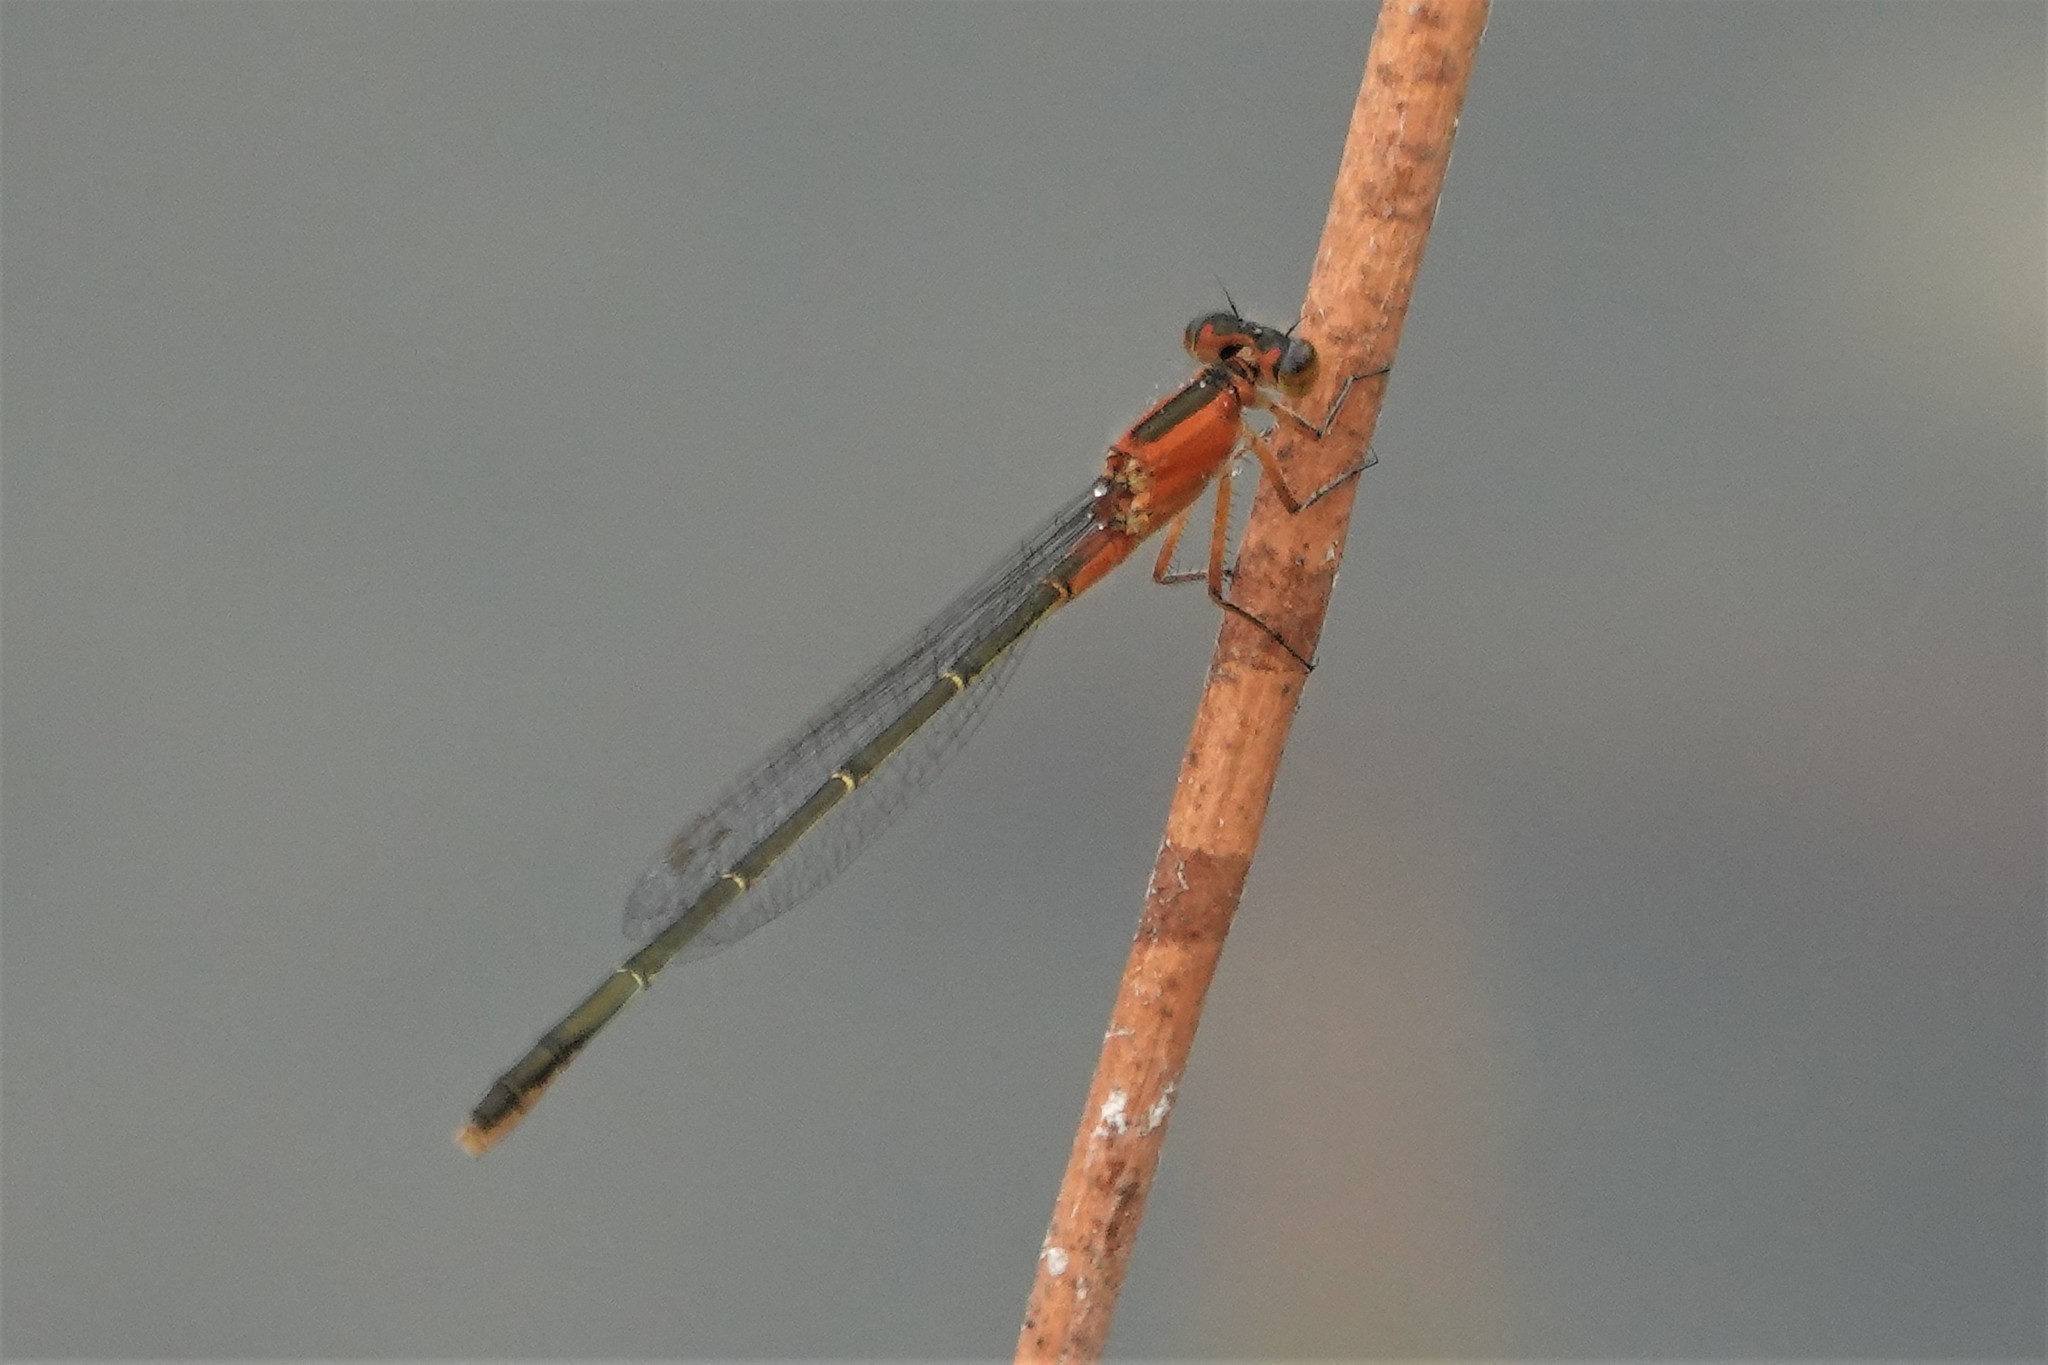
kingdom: Animalia
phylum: Arthropoda
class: Insecta
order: Odonata
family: Coenagrionidae
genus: Ischnura
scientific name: Ischnura ramburii
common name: Rambur's forktail
